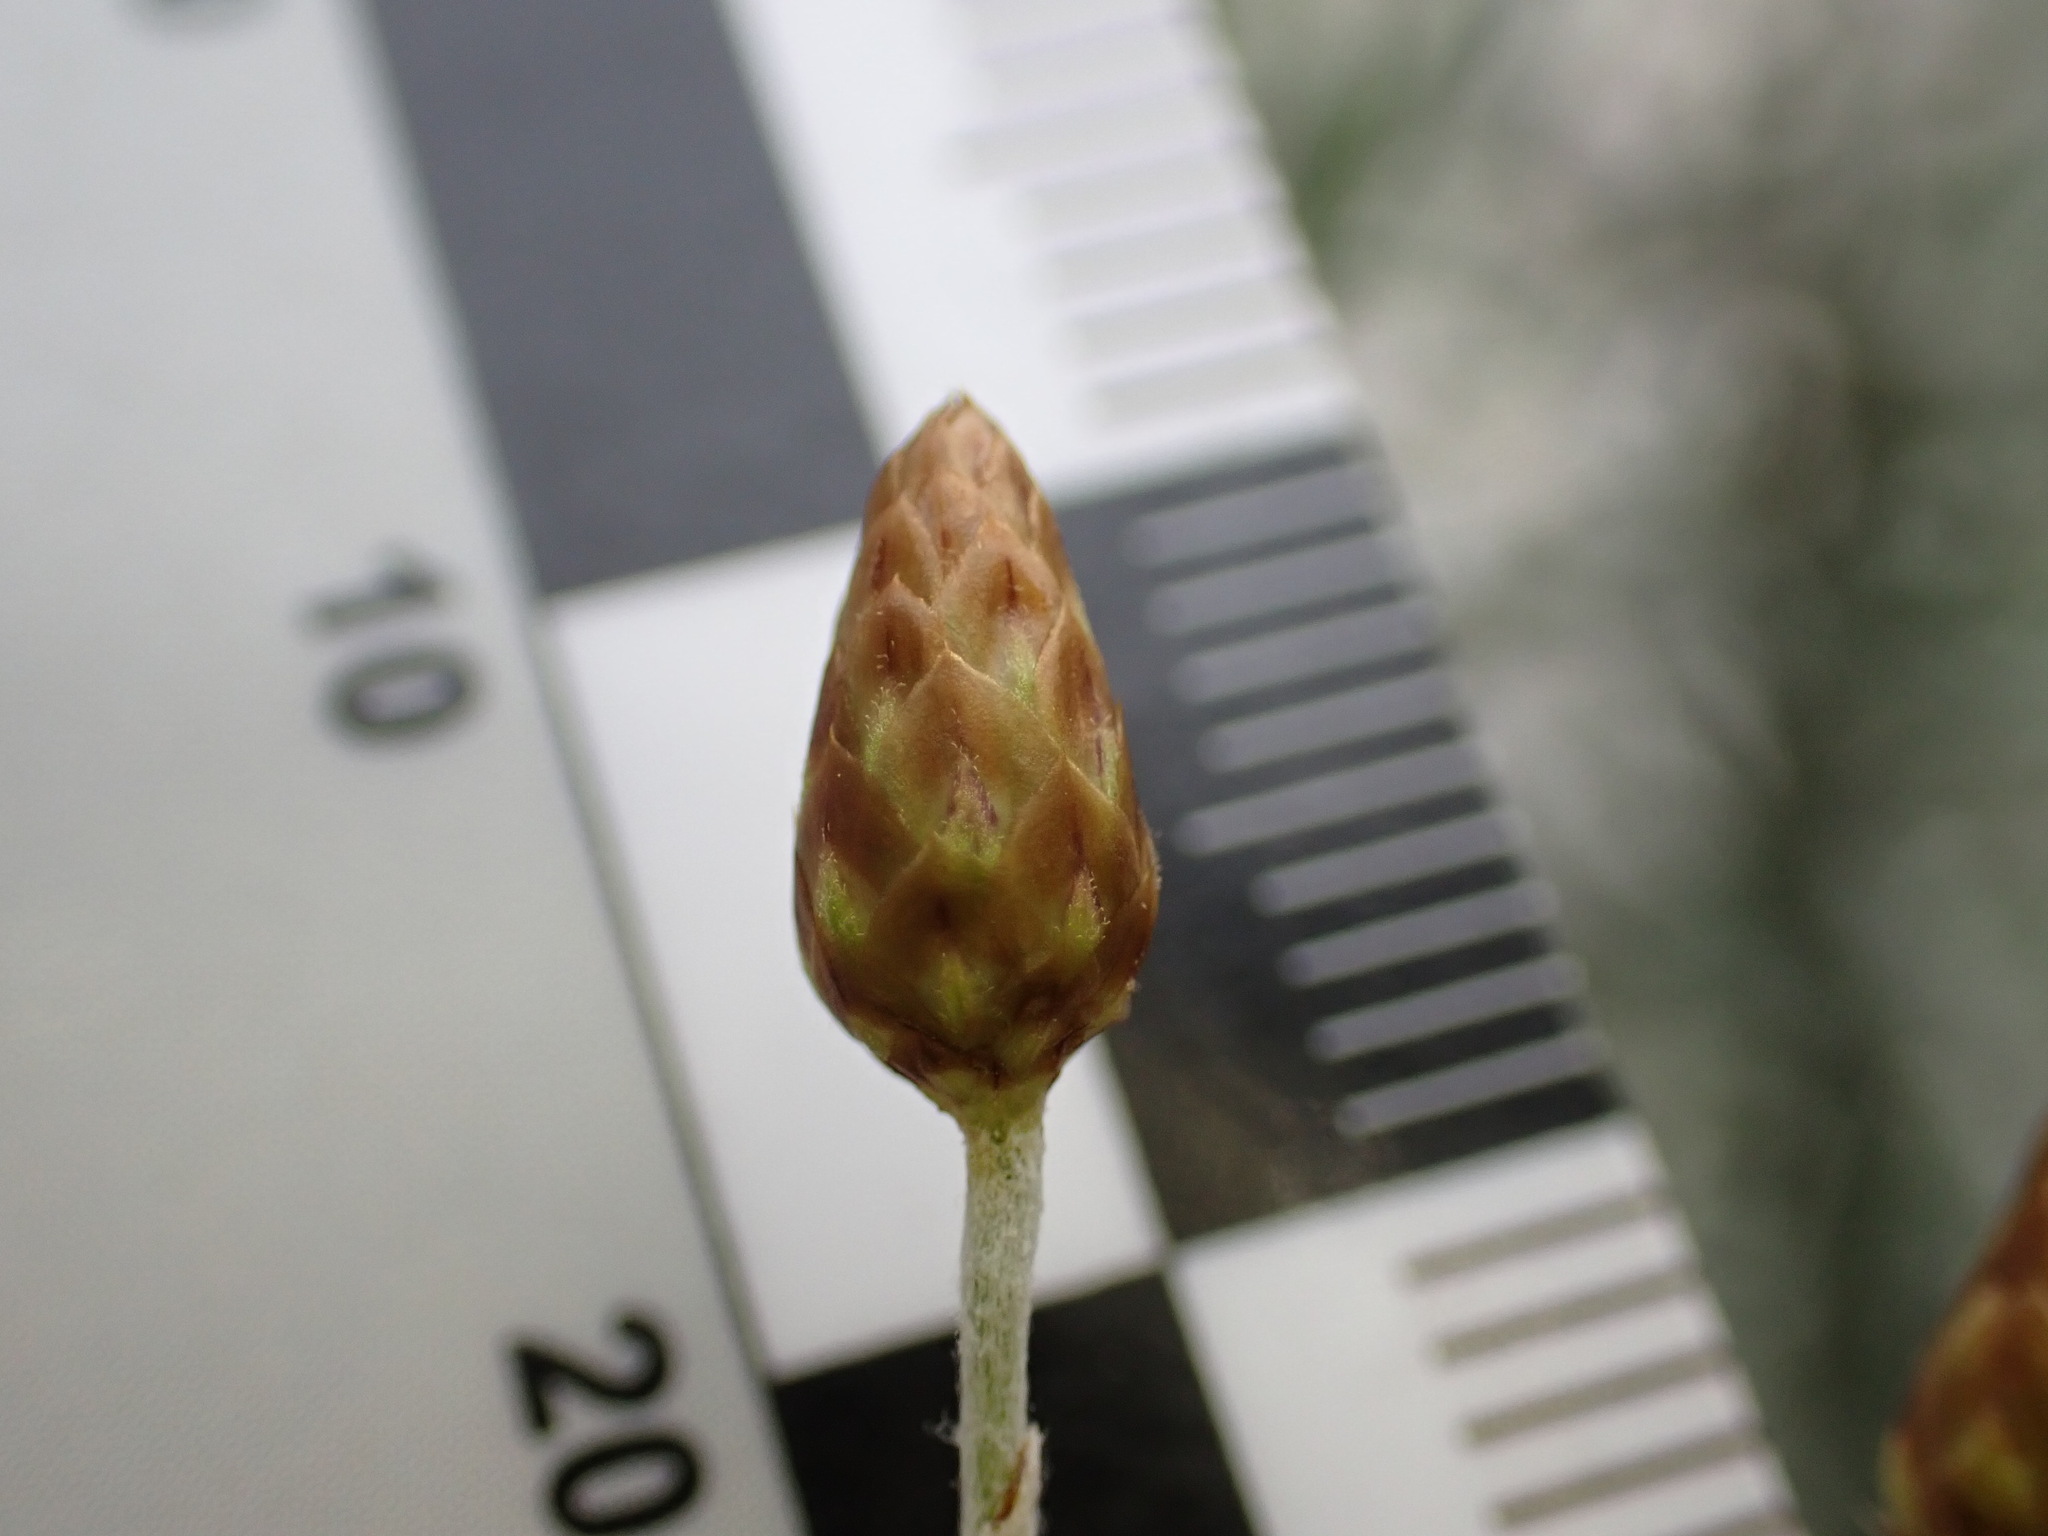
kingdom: Plantae
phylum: Tracheophyta
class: Magnoliopsida
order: Asterales
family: Asteraceae
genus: Phagnalon
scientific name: Phagnalon sordidum
